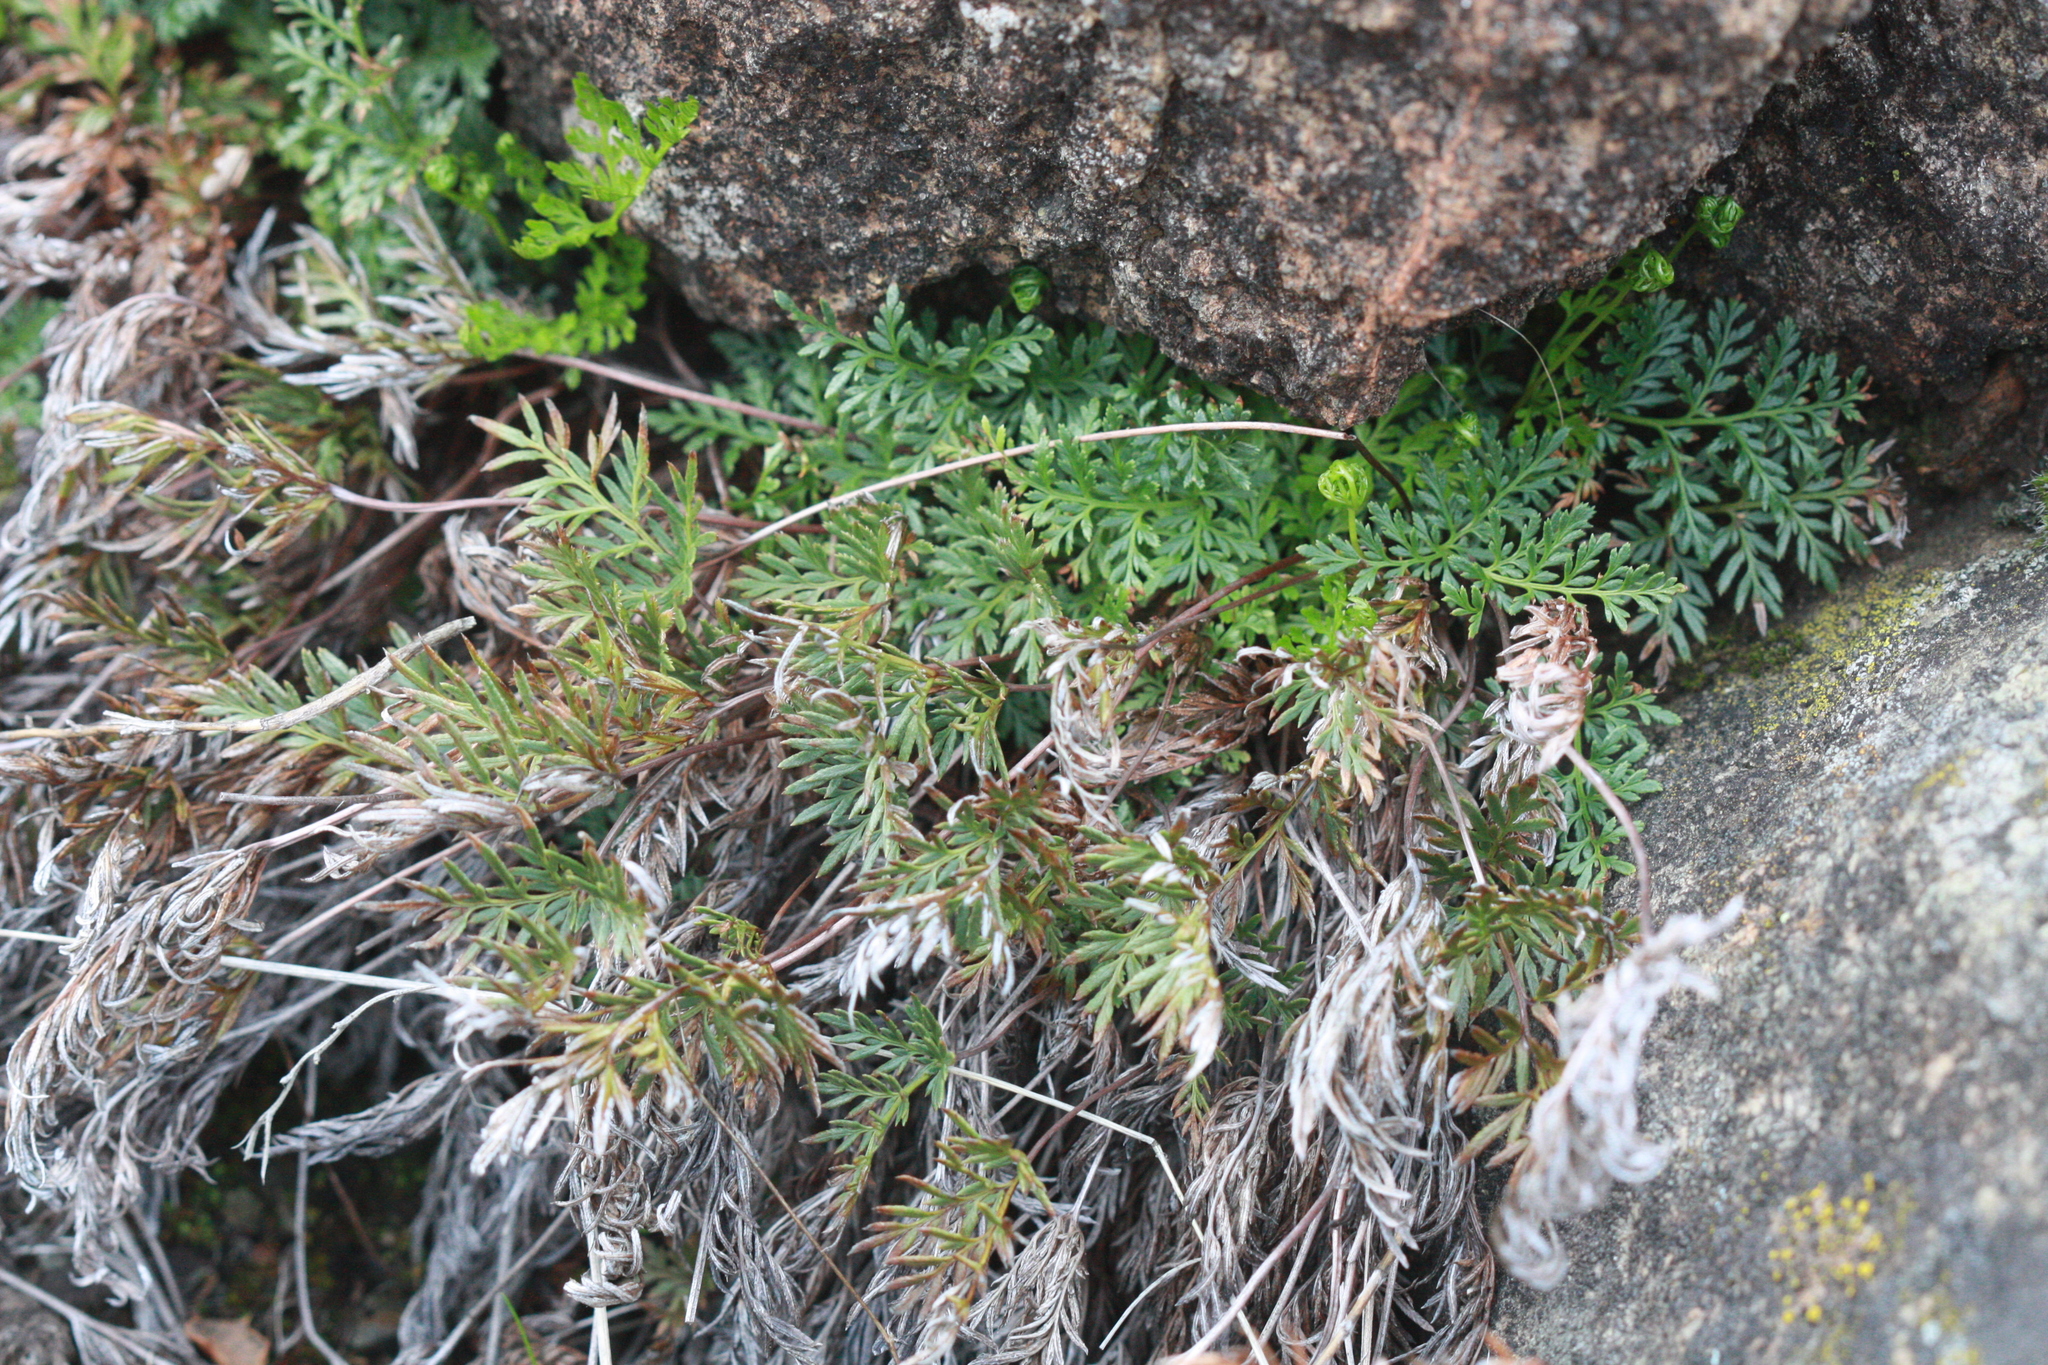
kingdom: Plantae
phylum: Tracheophyta
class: Polypodiopsida
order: Polypodiales
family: Pteridaceae
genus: Aspidotis
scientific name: Aspidotis densa
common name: Indian's dream
